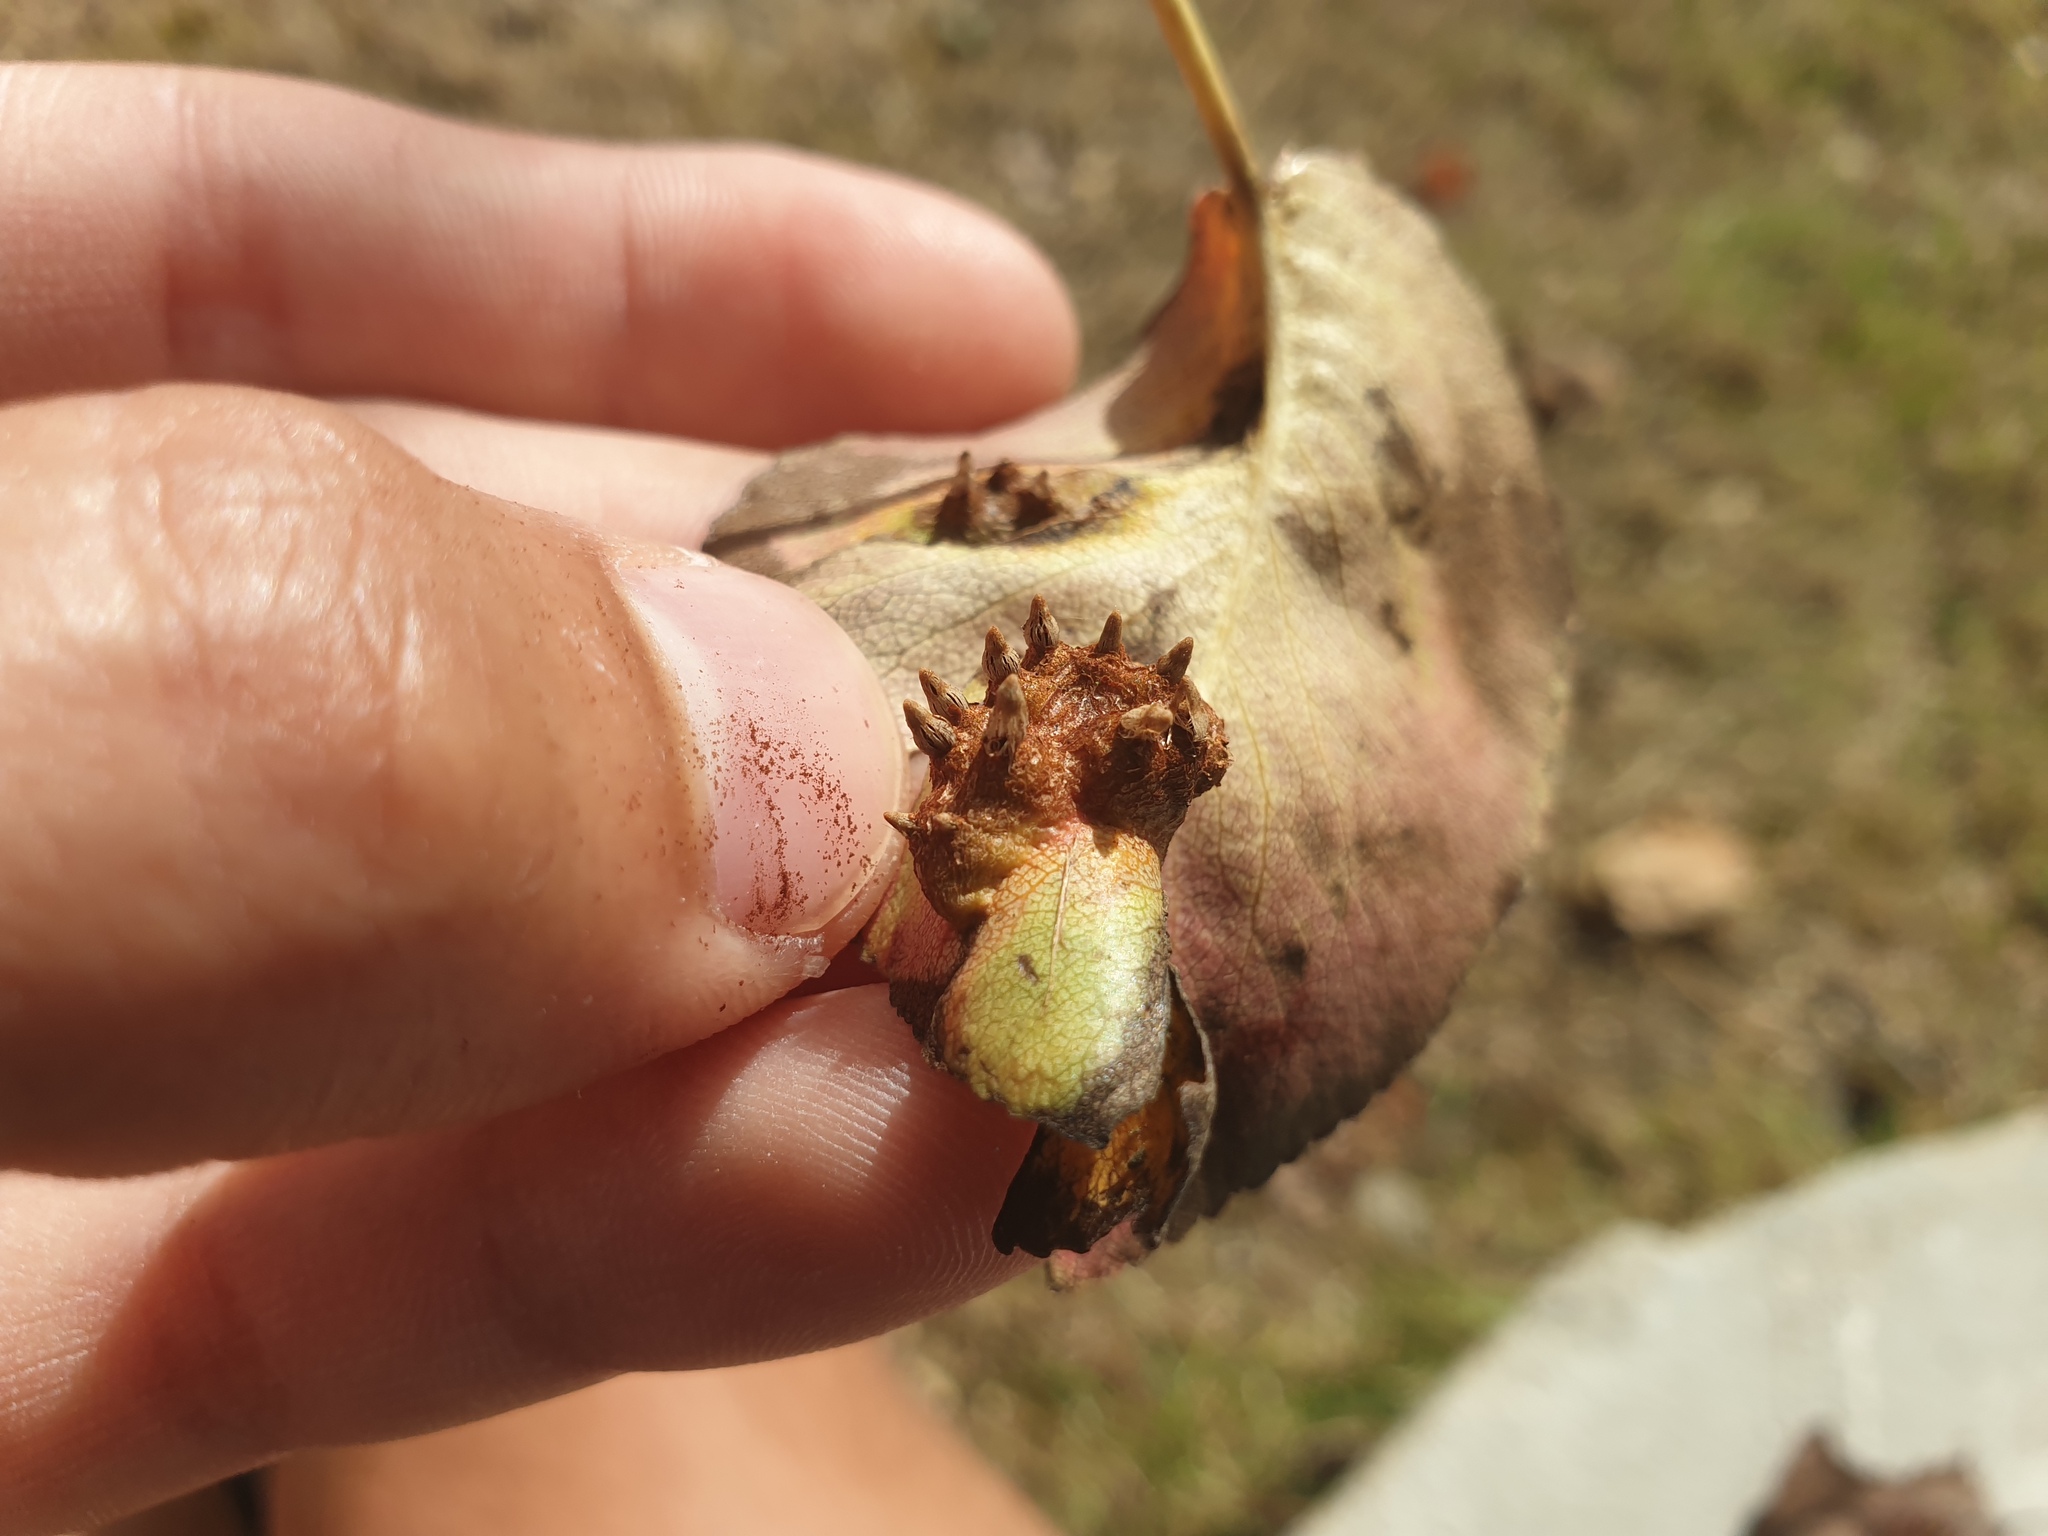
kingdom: Fungi
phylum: Basidiomycota
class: Pucciniomycetes
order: Pucciniales
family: Gymnosporangiaceae
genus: Gymnosporangium
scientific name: Gymnosporangium sabinae
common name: Pear trellis rust fungus
